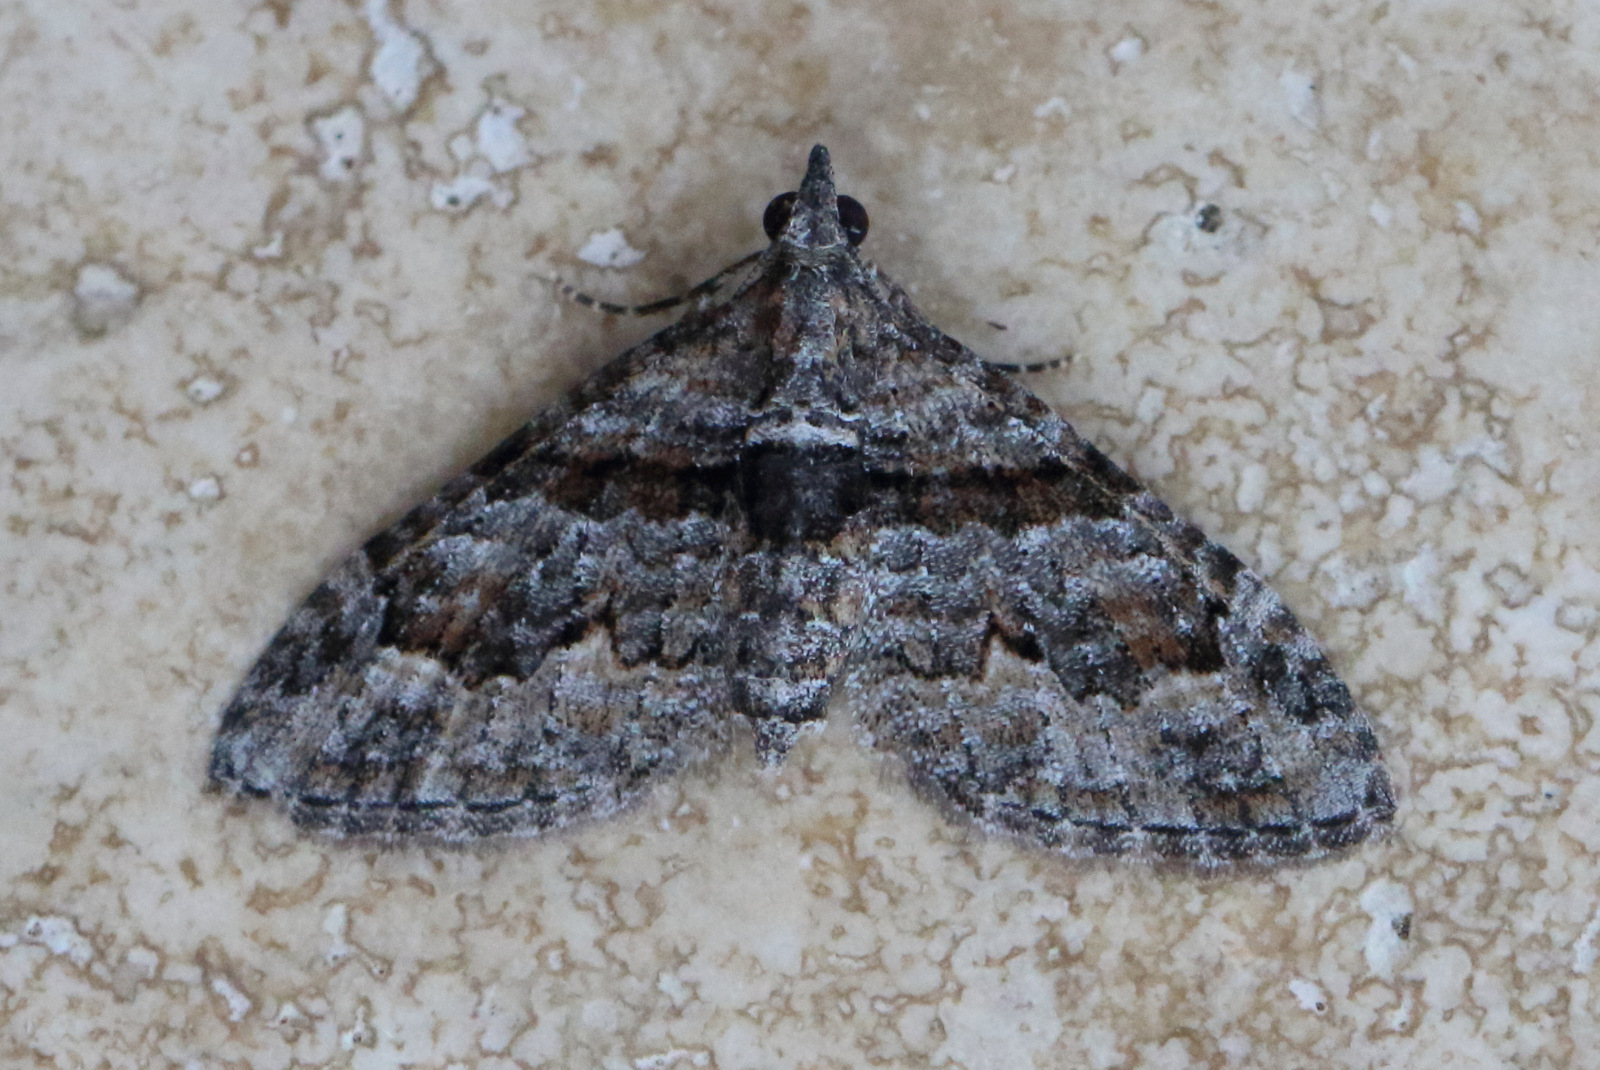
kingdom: Animalia
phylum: Arthropoda
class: Insecta
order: Lepidoptera
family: Geometridae
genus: Phrissogonus
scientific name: Phrissogonus laticostata
